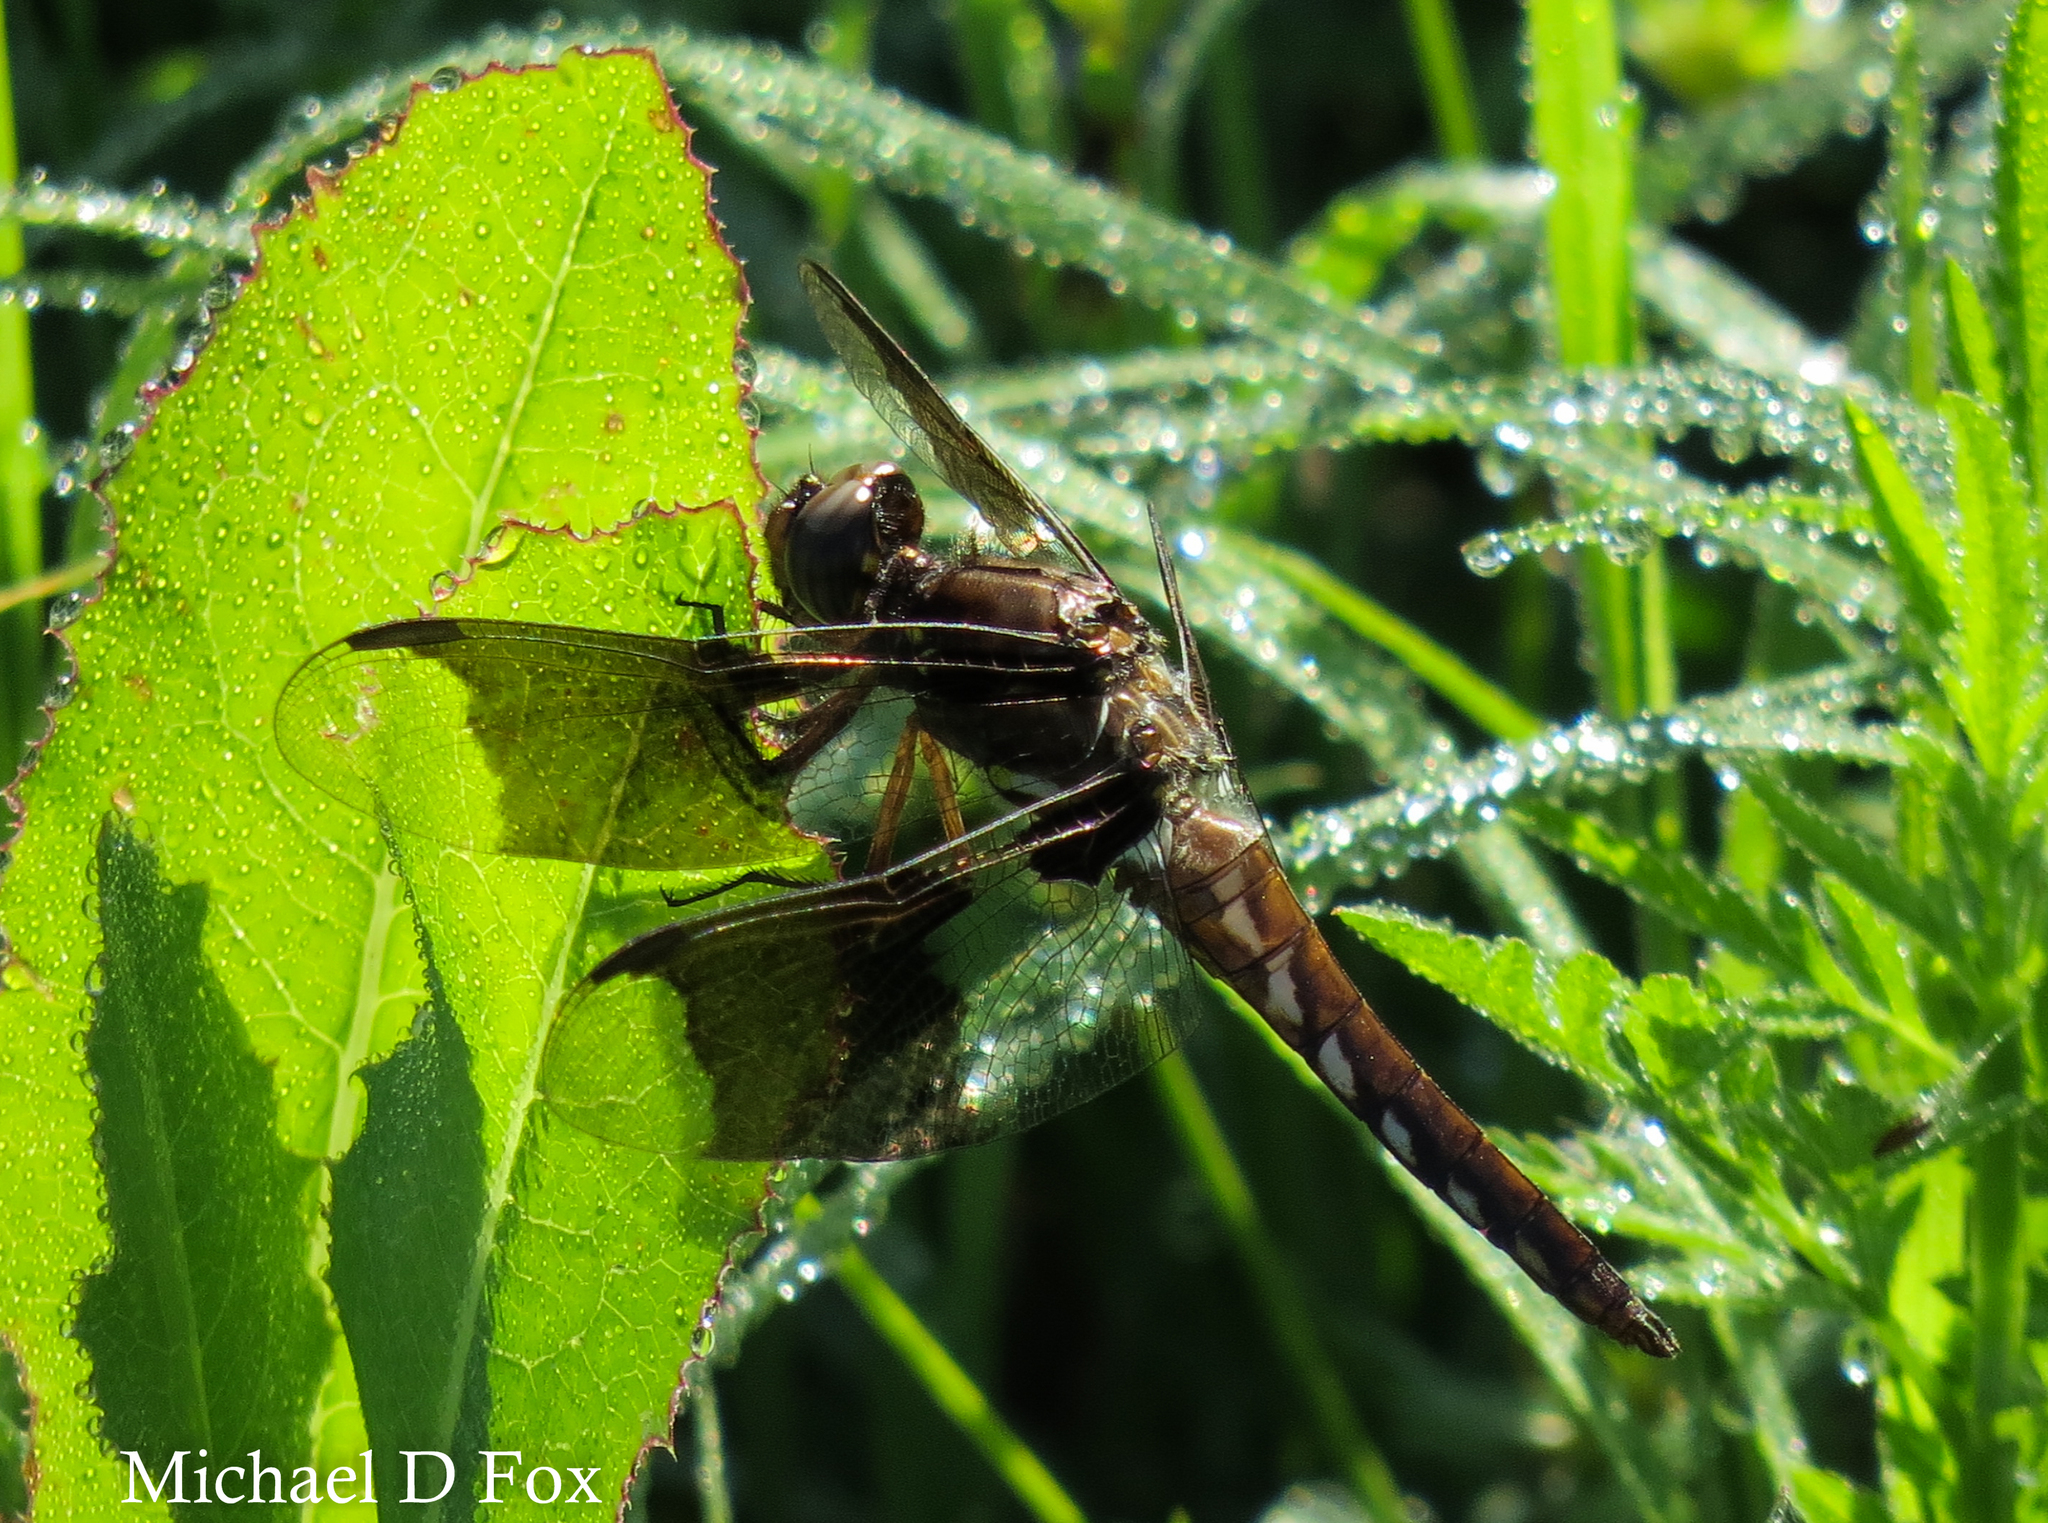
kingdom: Animalia
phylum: Arthropoda
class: Insecta
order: Odonata
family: Libellulidae
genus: Plathemis
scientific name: Plathemis lydia
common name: Common whitetail
